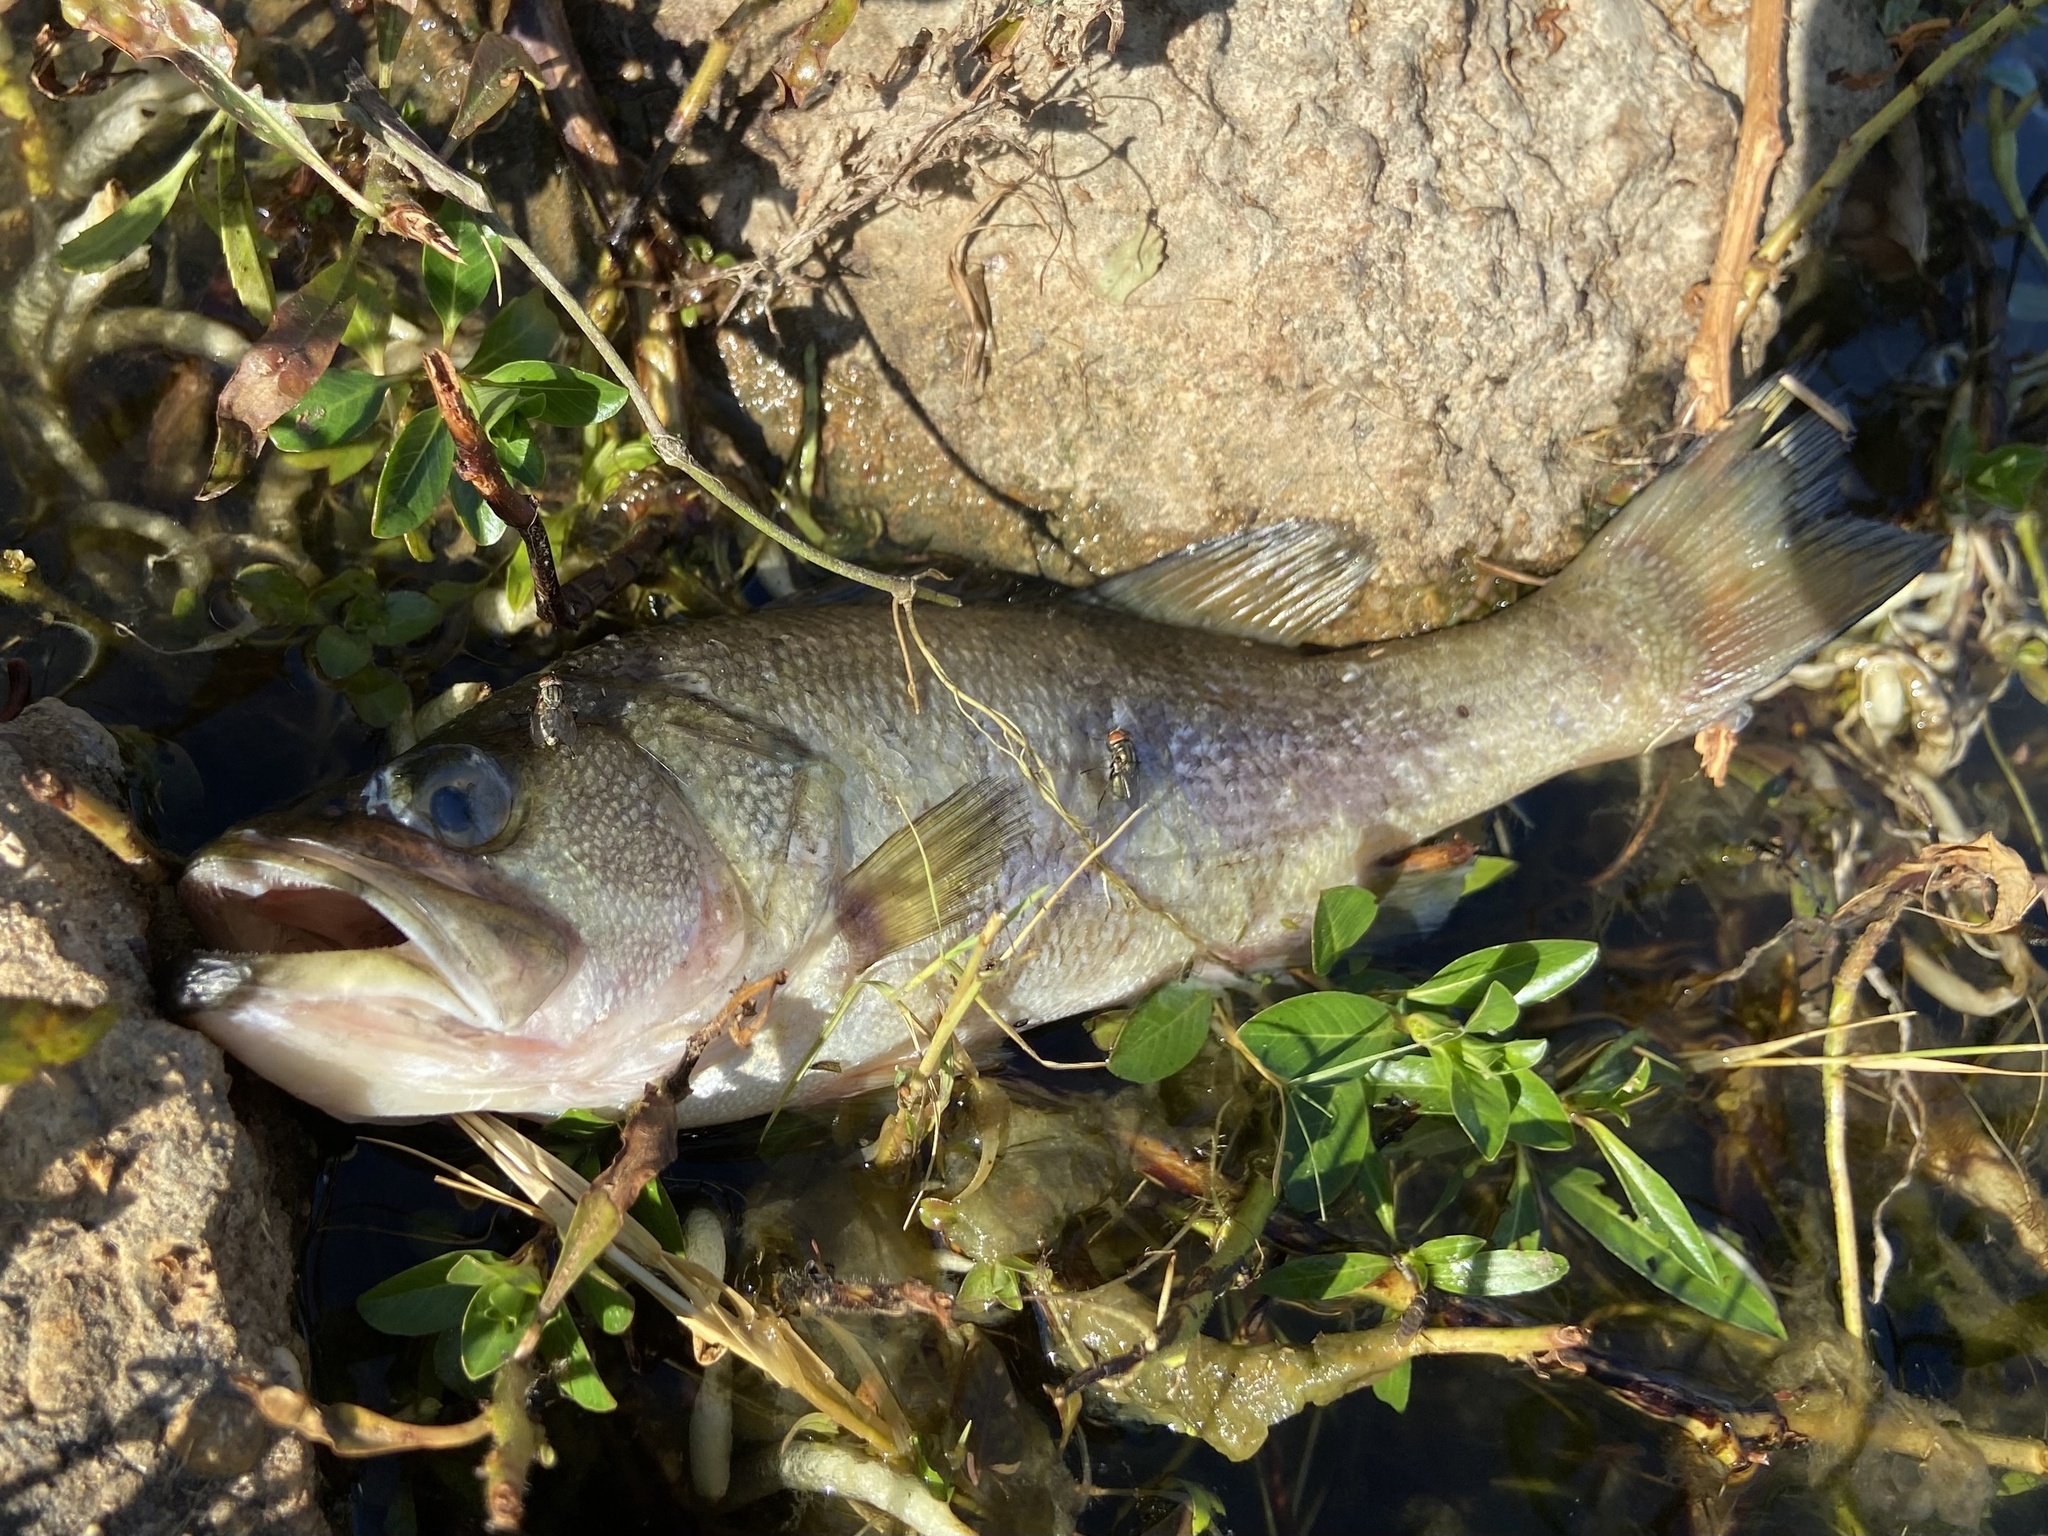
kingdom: Animalia
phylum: Chordata
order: Perciformes
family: Centrarchidae
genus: Micropterus
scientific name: Micropterus
